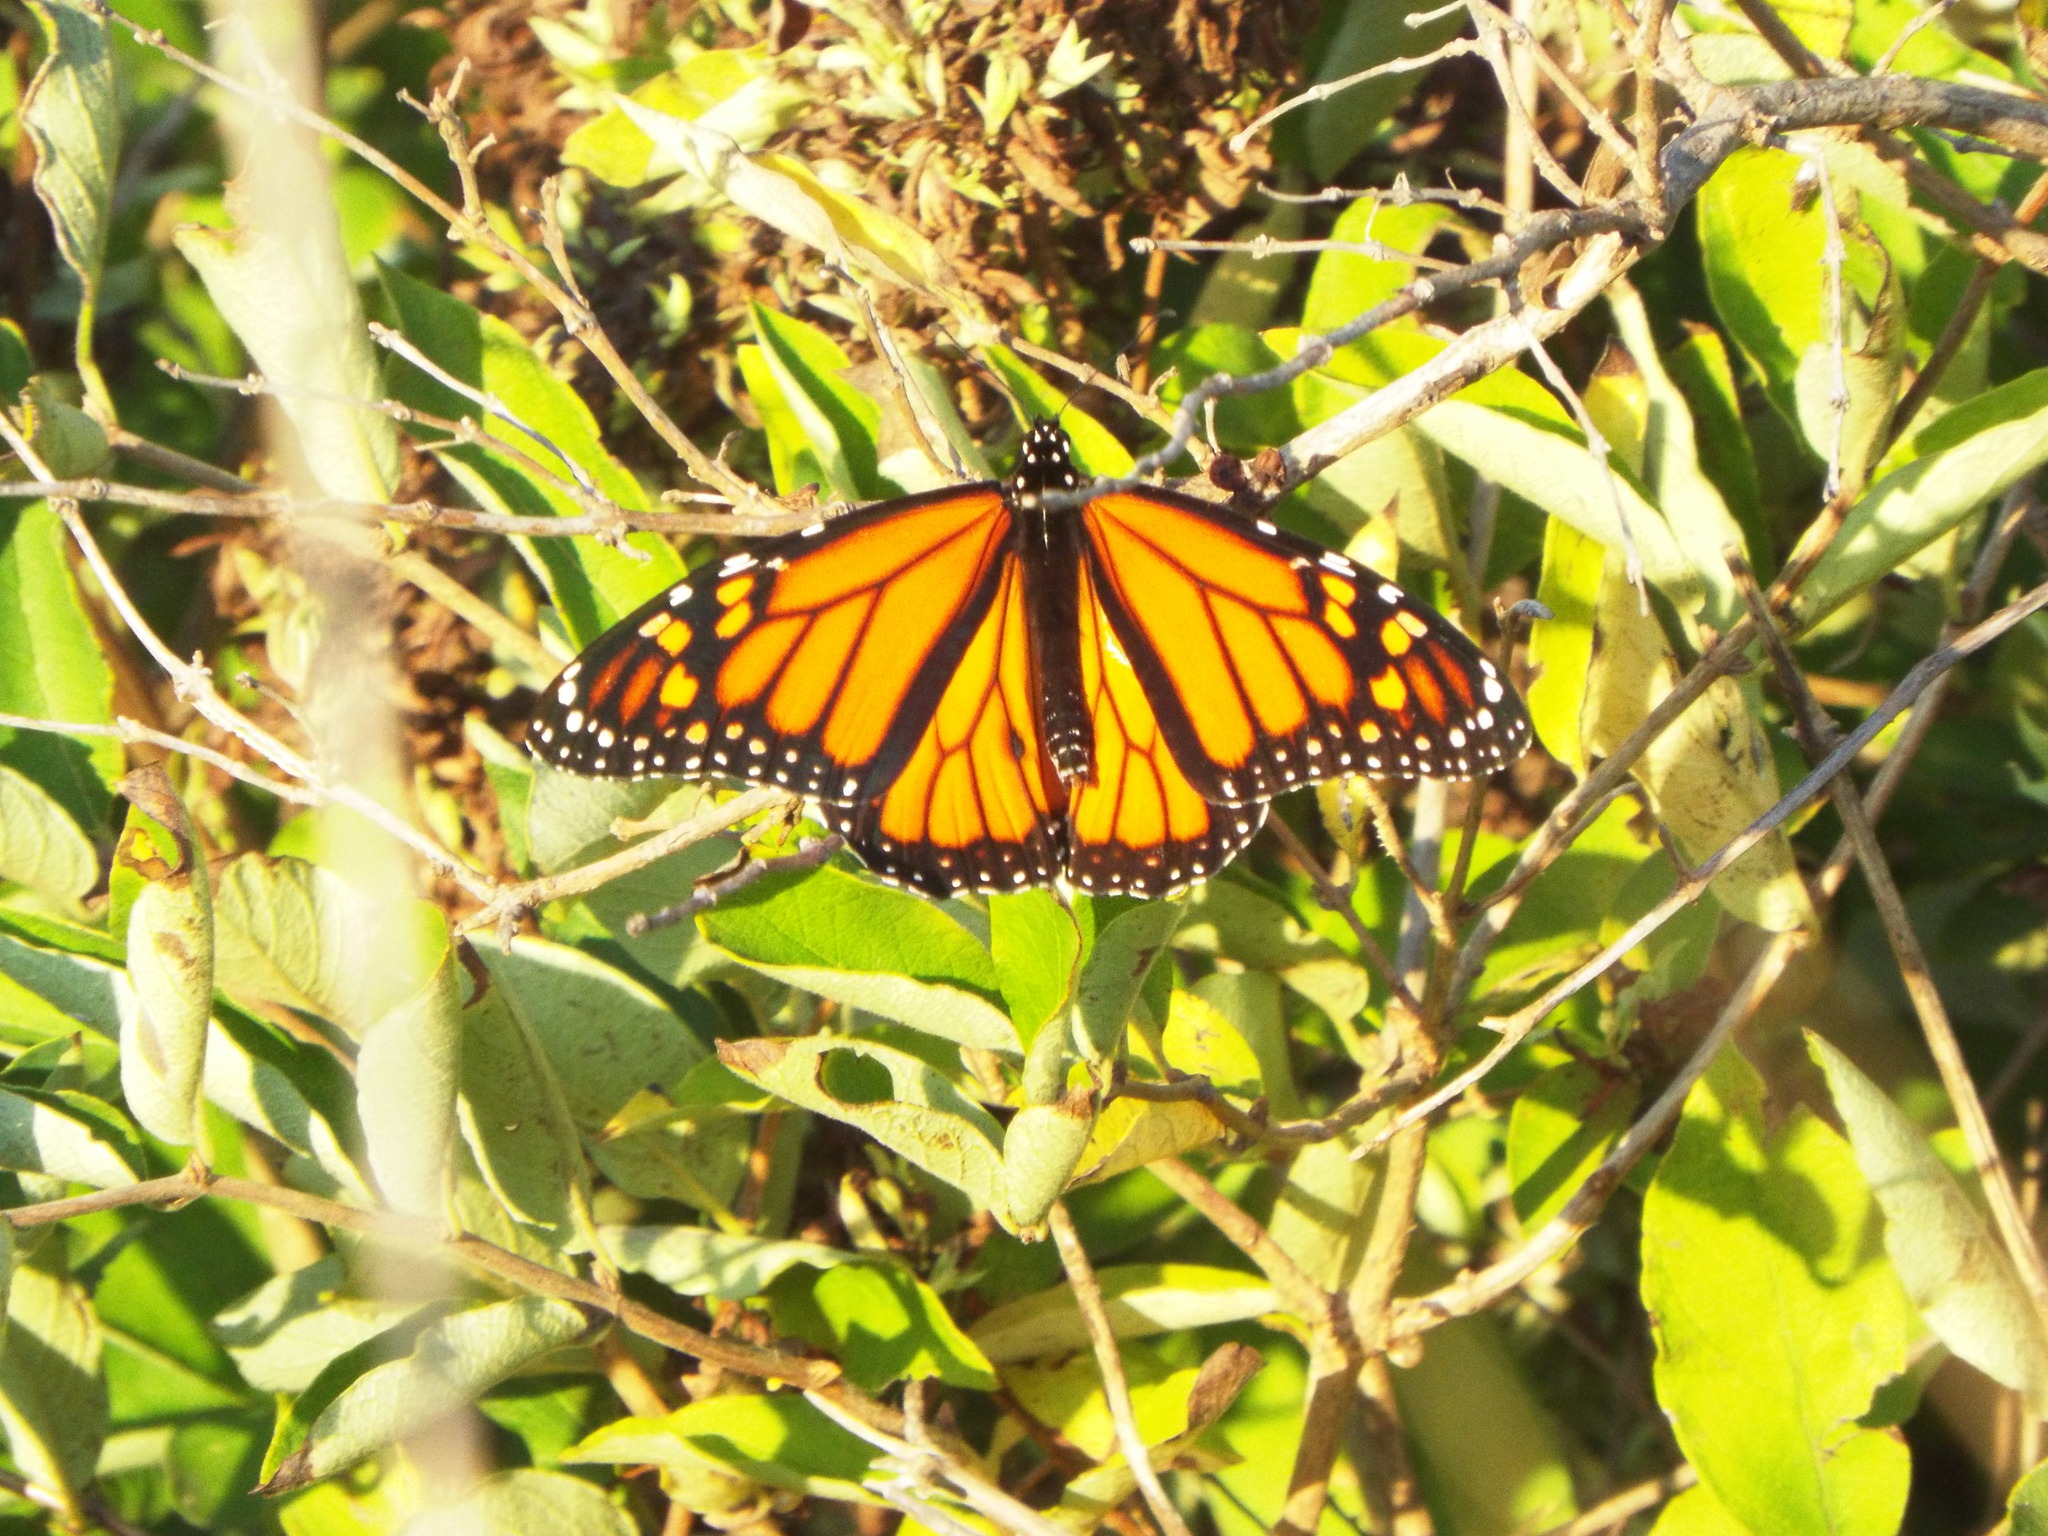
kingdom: Animalia
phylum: Arthropoda
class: Insecta
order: Lepidoptera
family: Nymphalidae
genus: Danaus
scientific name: Danaus plexippus
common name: Monarch
